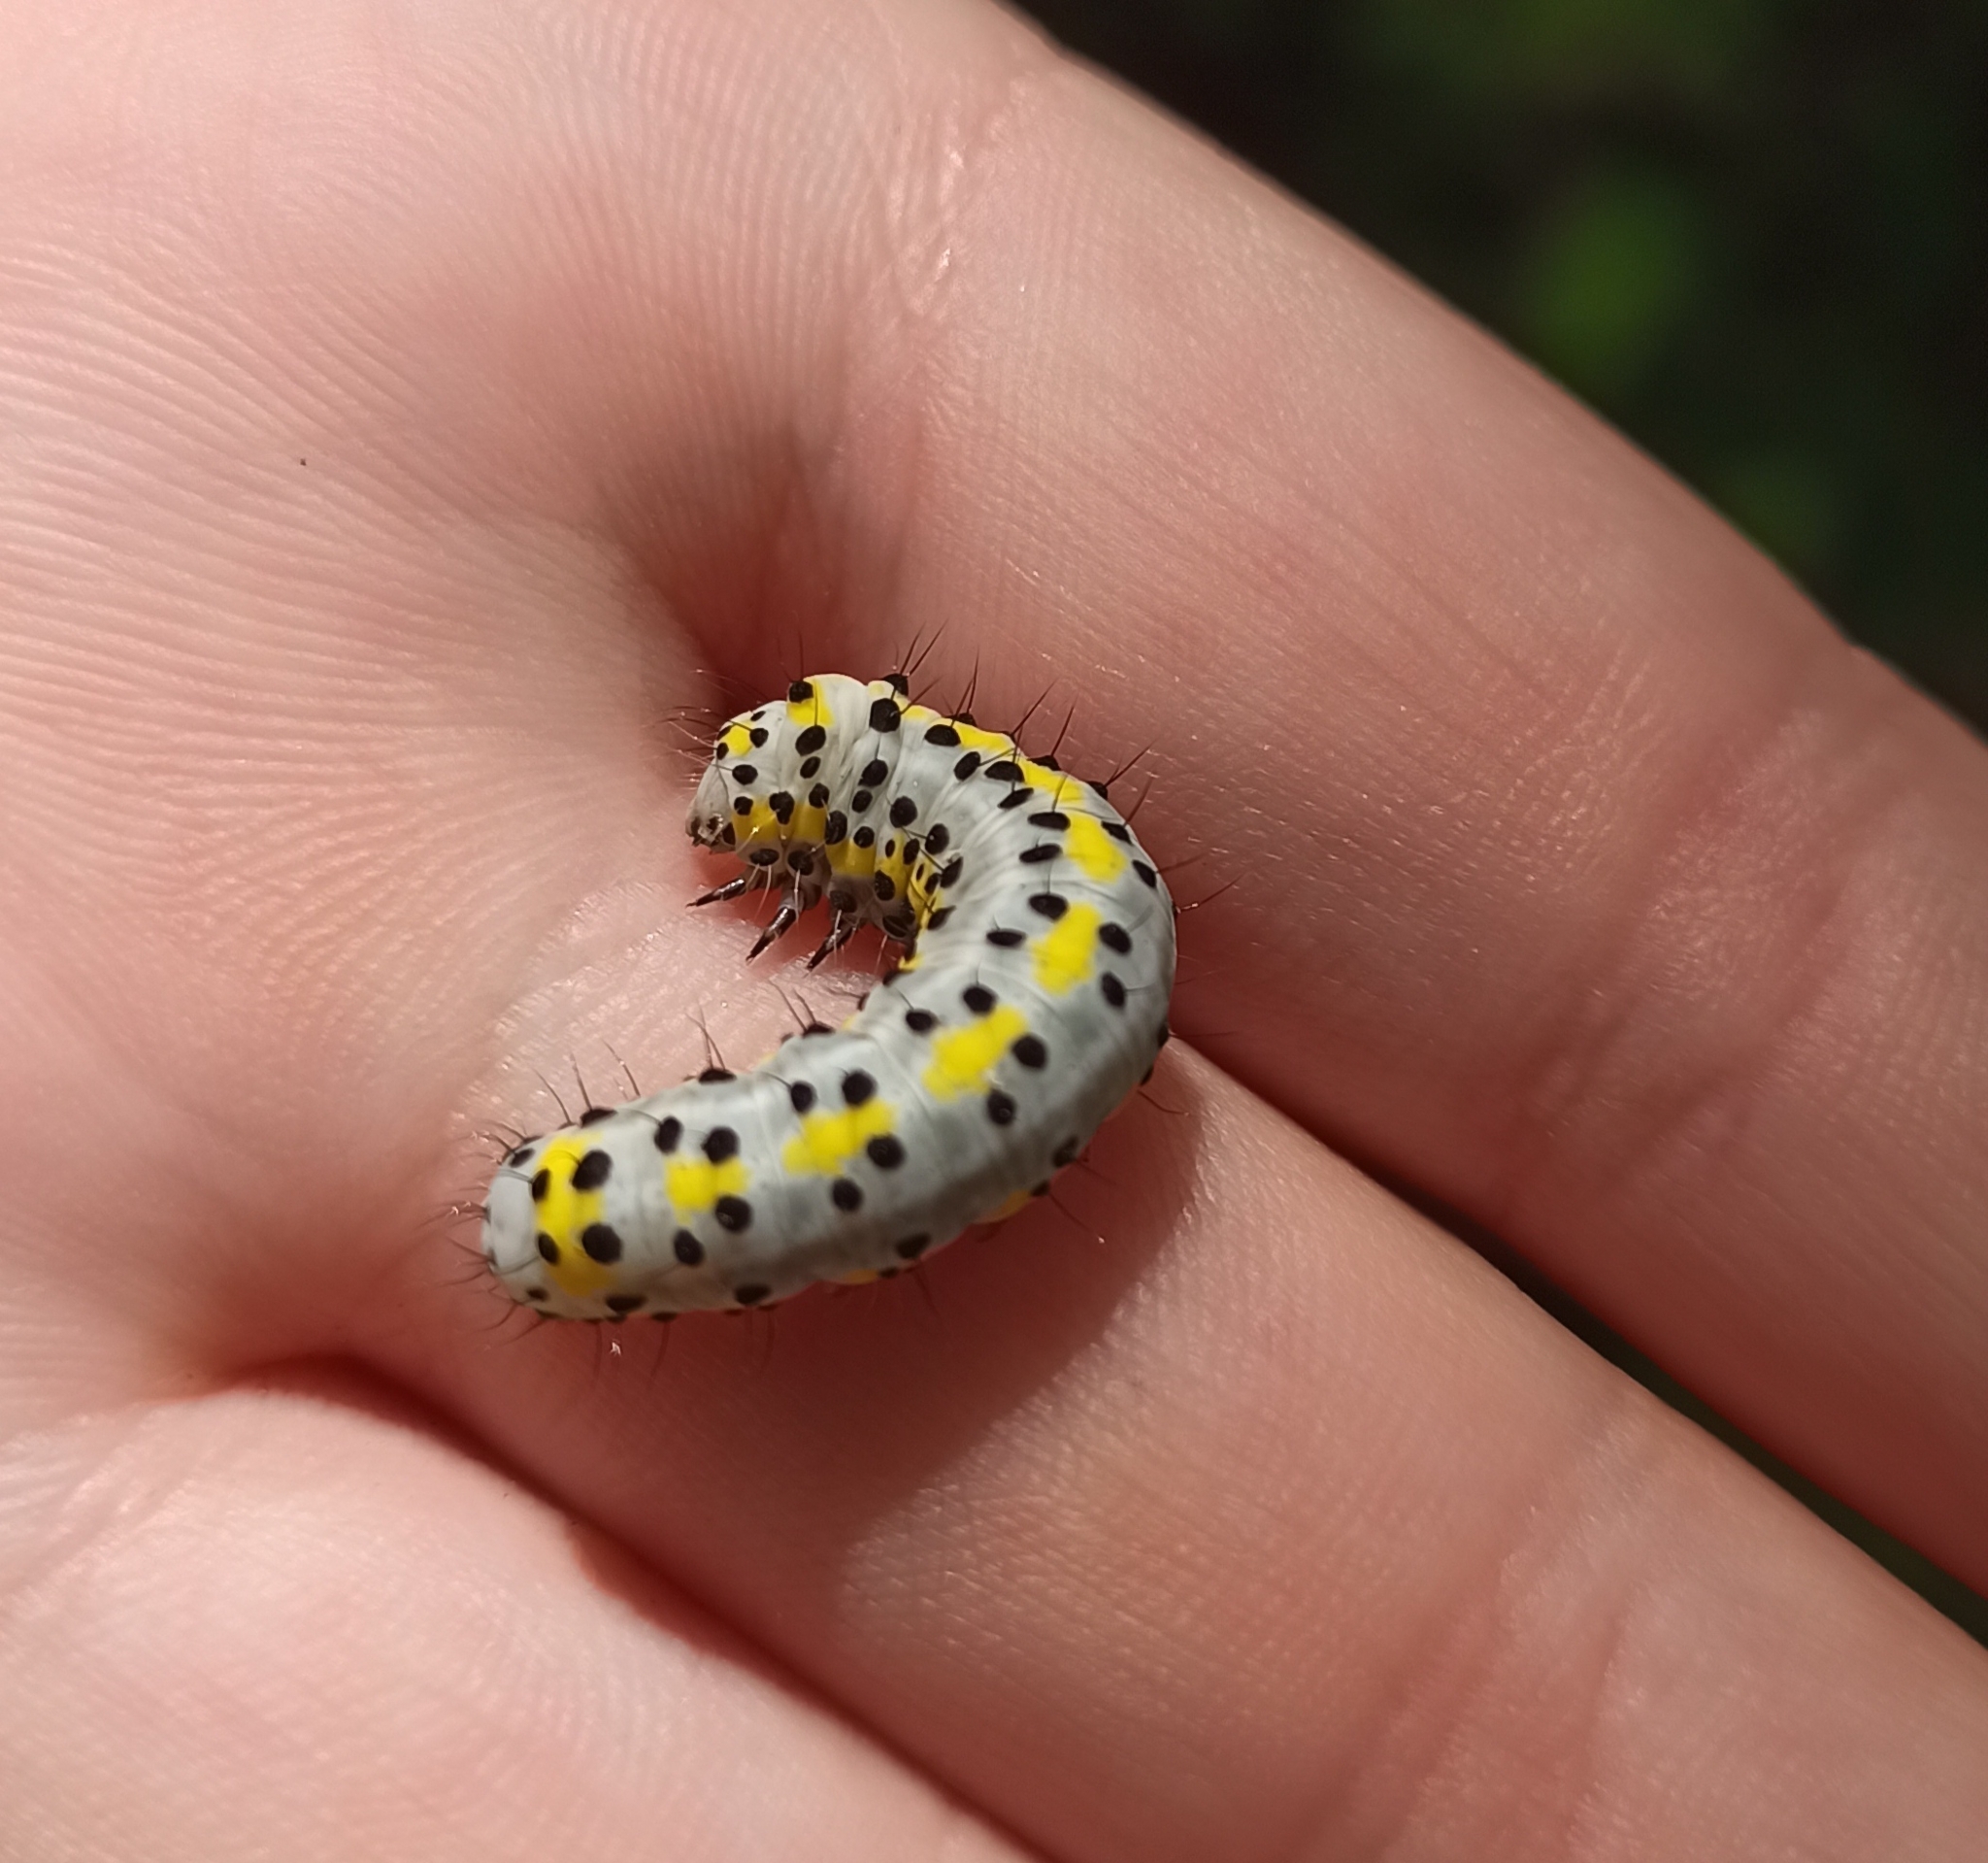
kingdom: Animalia
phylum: Arthropoda
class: Insecta
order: Lepidoptera
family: Noctuidae
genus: Diloba
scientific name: Diloba caeruleocephala
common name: Figure of eight
